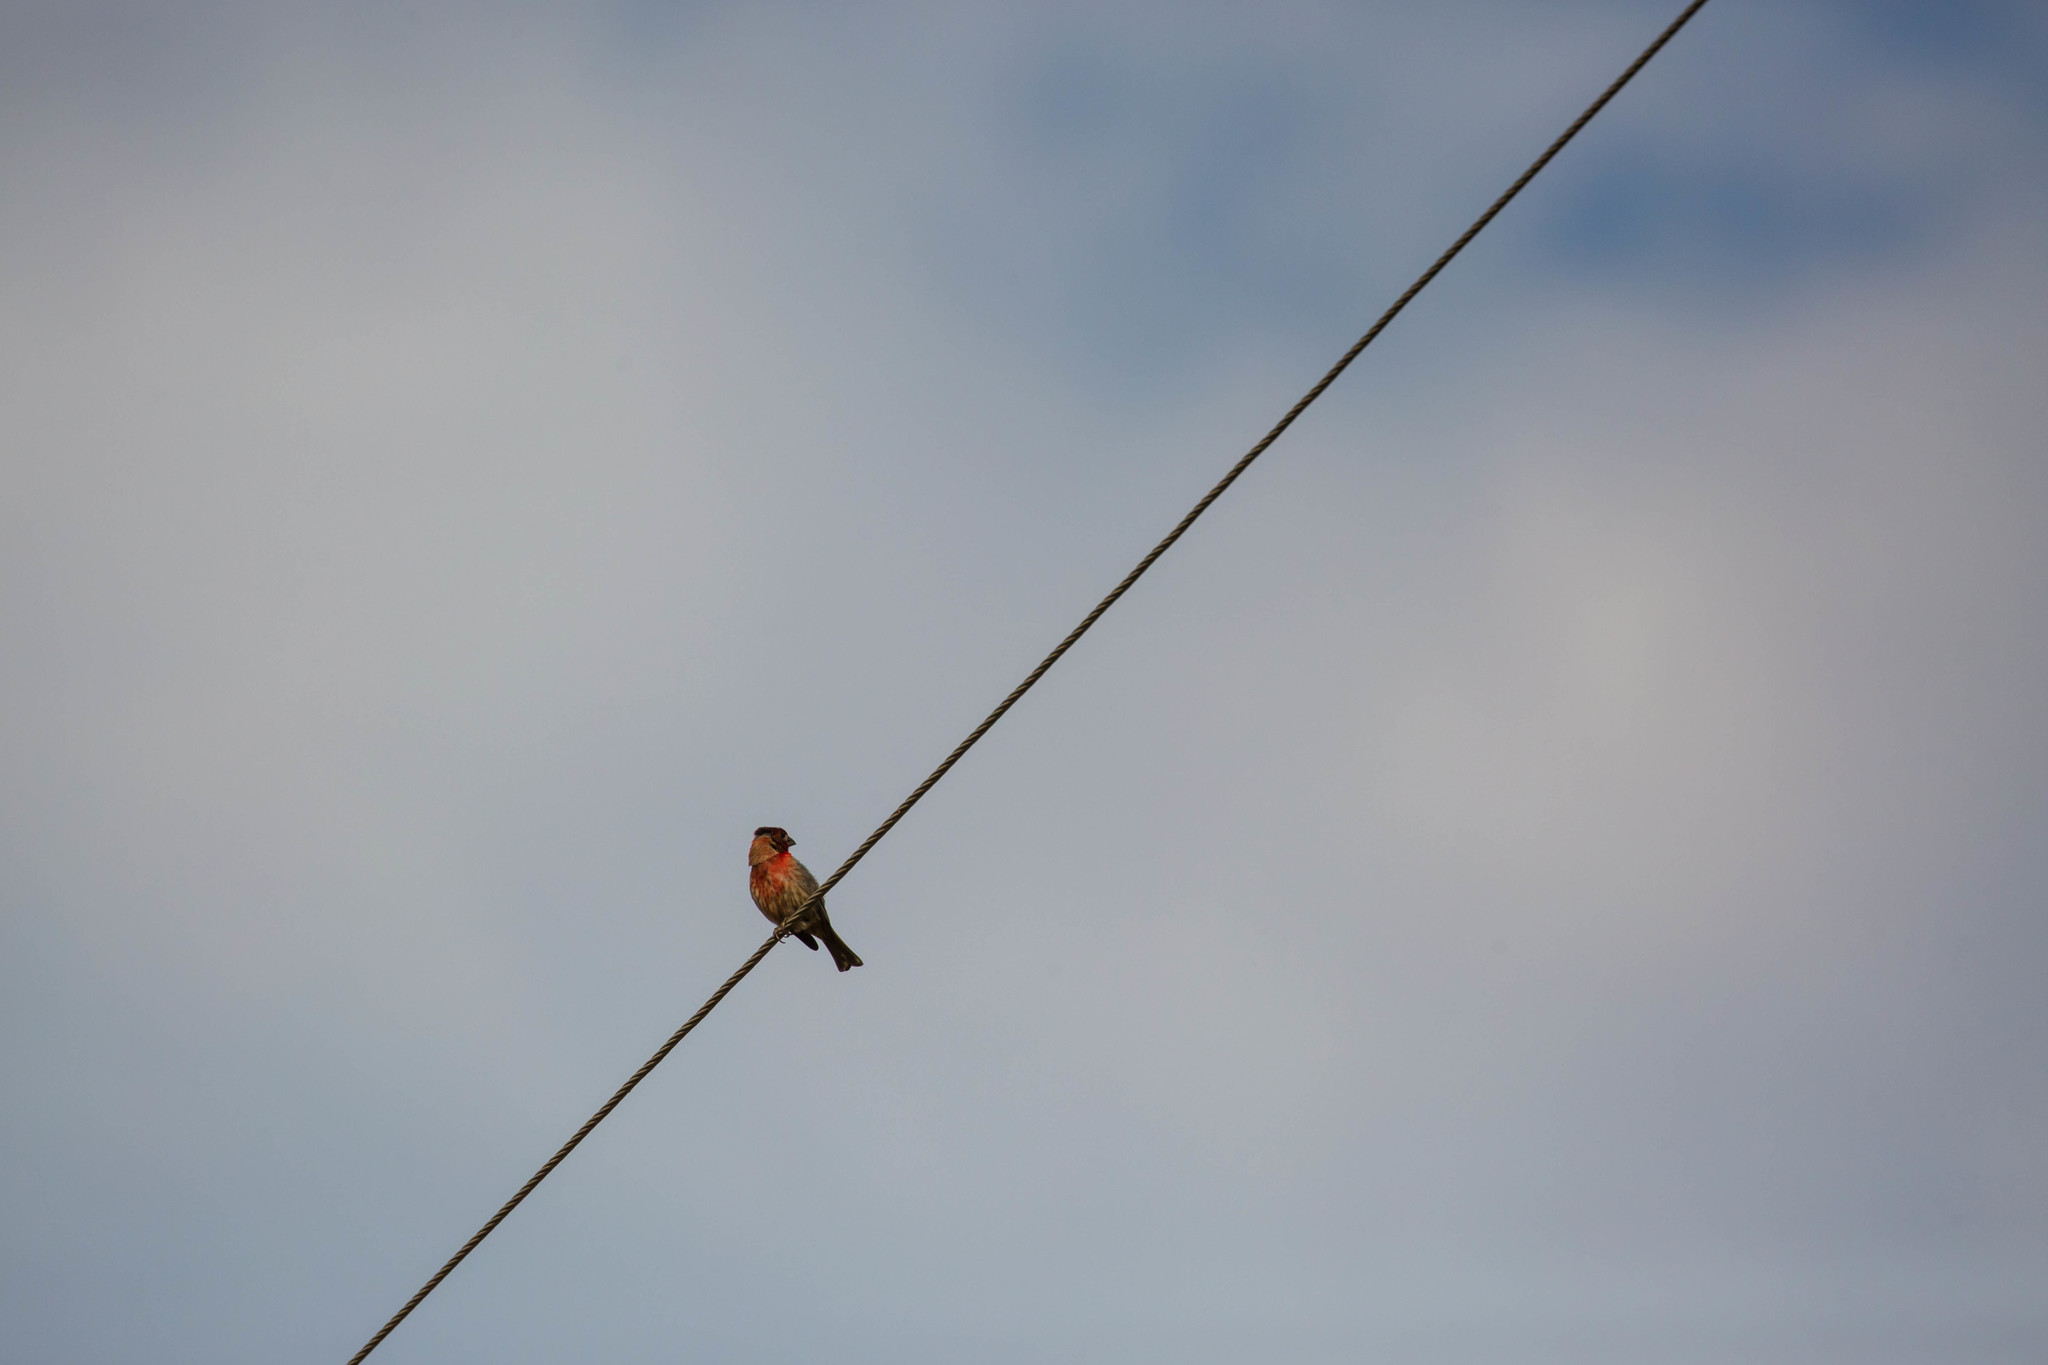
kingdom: Animalia
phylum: Chordata
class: Aves
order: Passeriformes
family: Fringillidae
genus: Haemorhous
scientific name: Haemorhous mexicanus
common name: House finch
